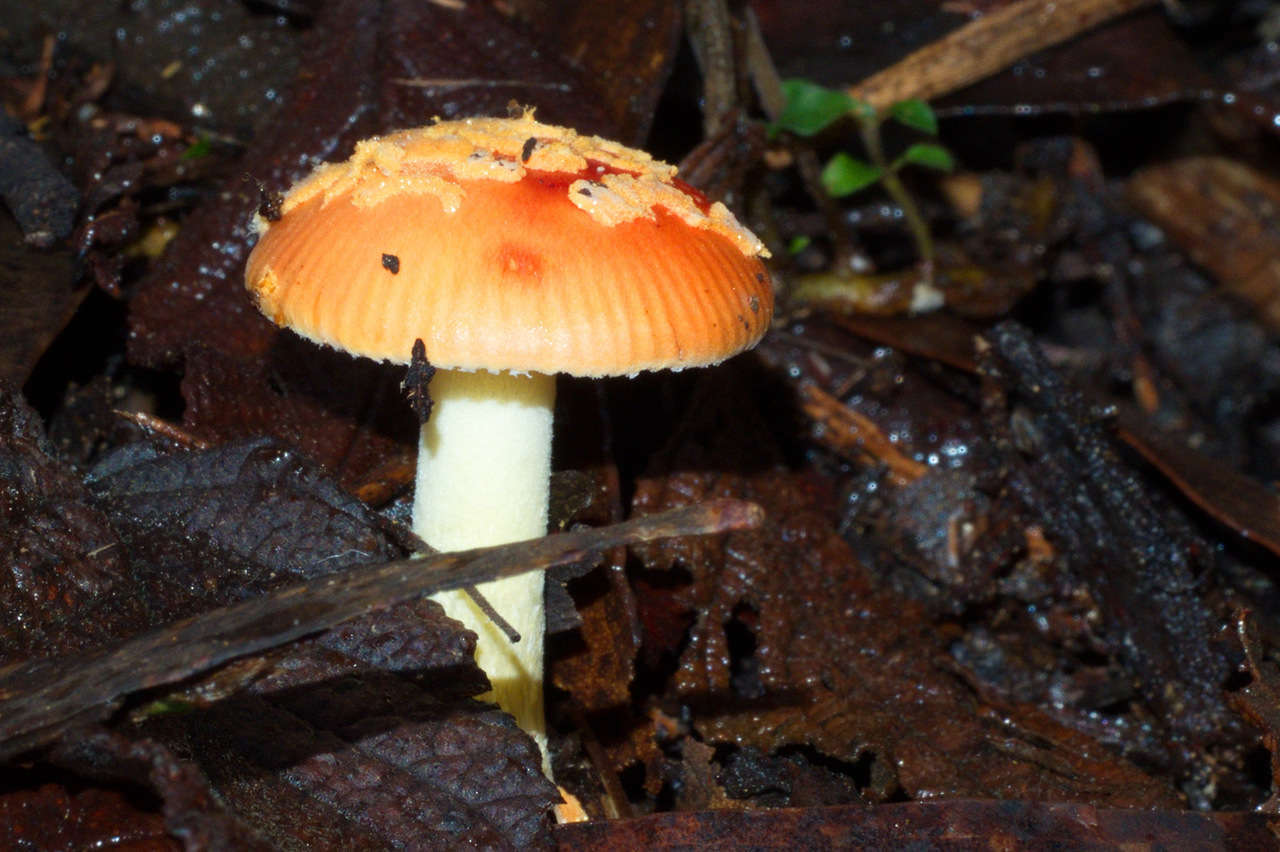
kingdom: Fungi
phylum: Basidiomycota
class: Agaricomycetes
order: Agaricales
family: Amanitaceae
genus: Amanita
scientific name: Amanita xanthocephala
